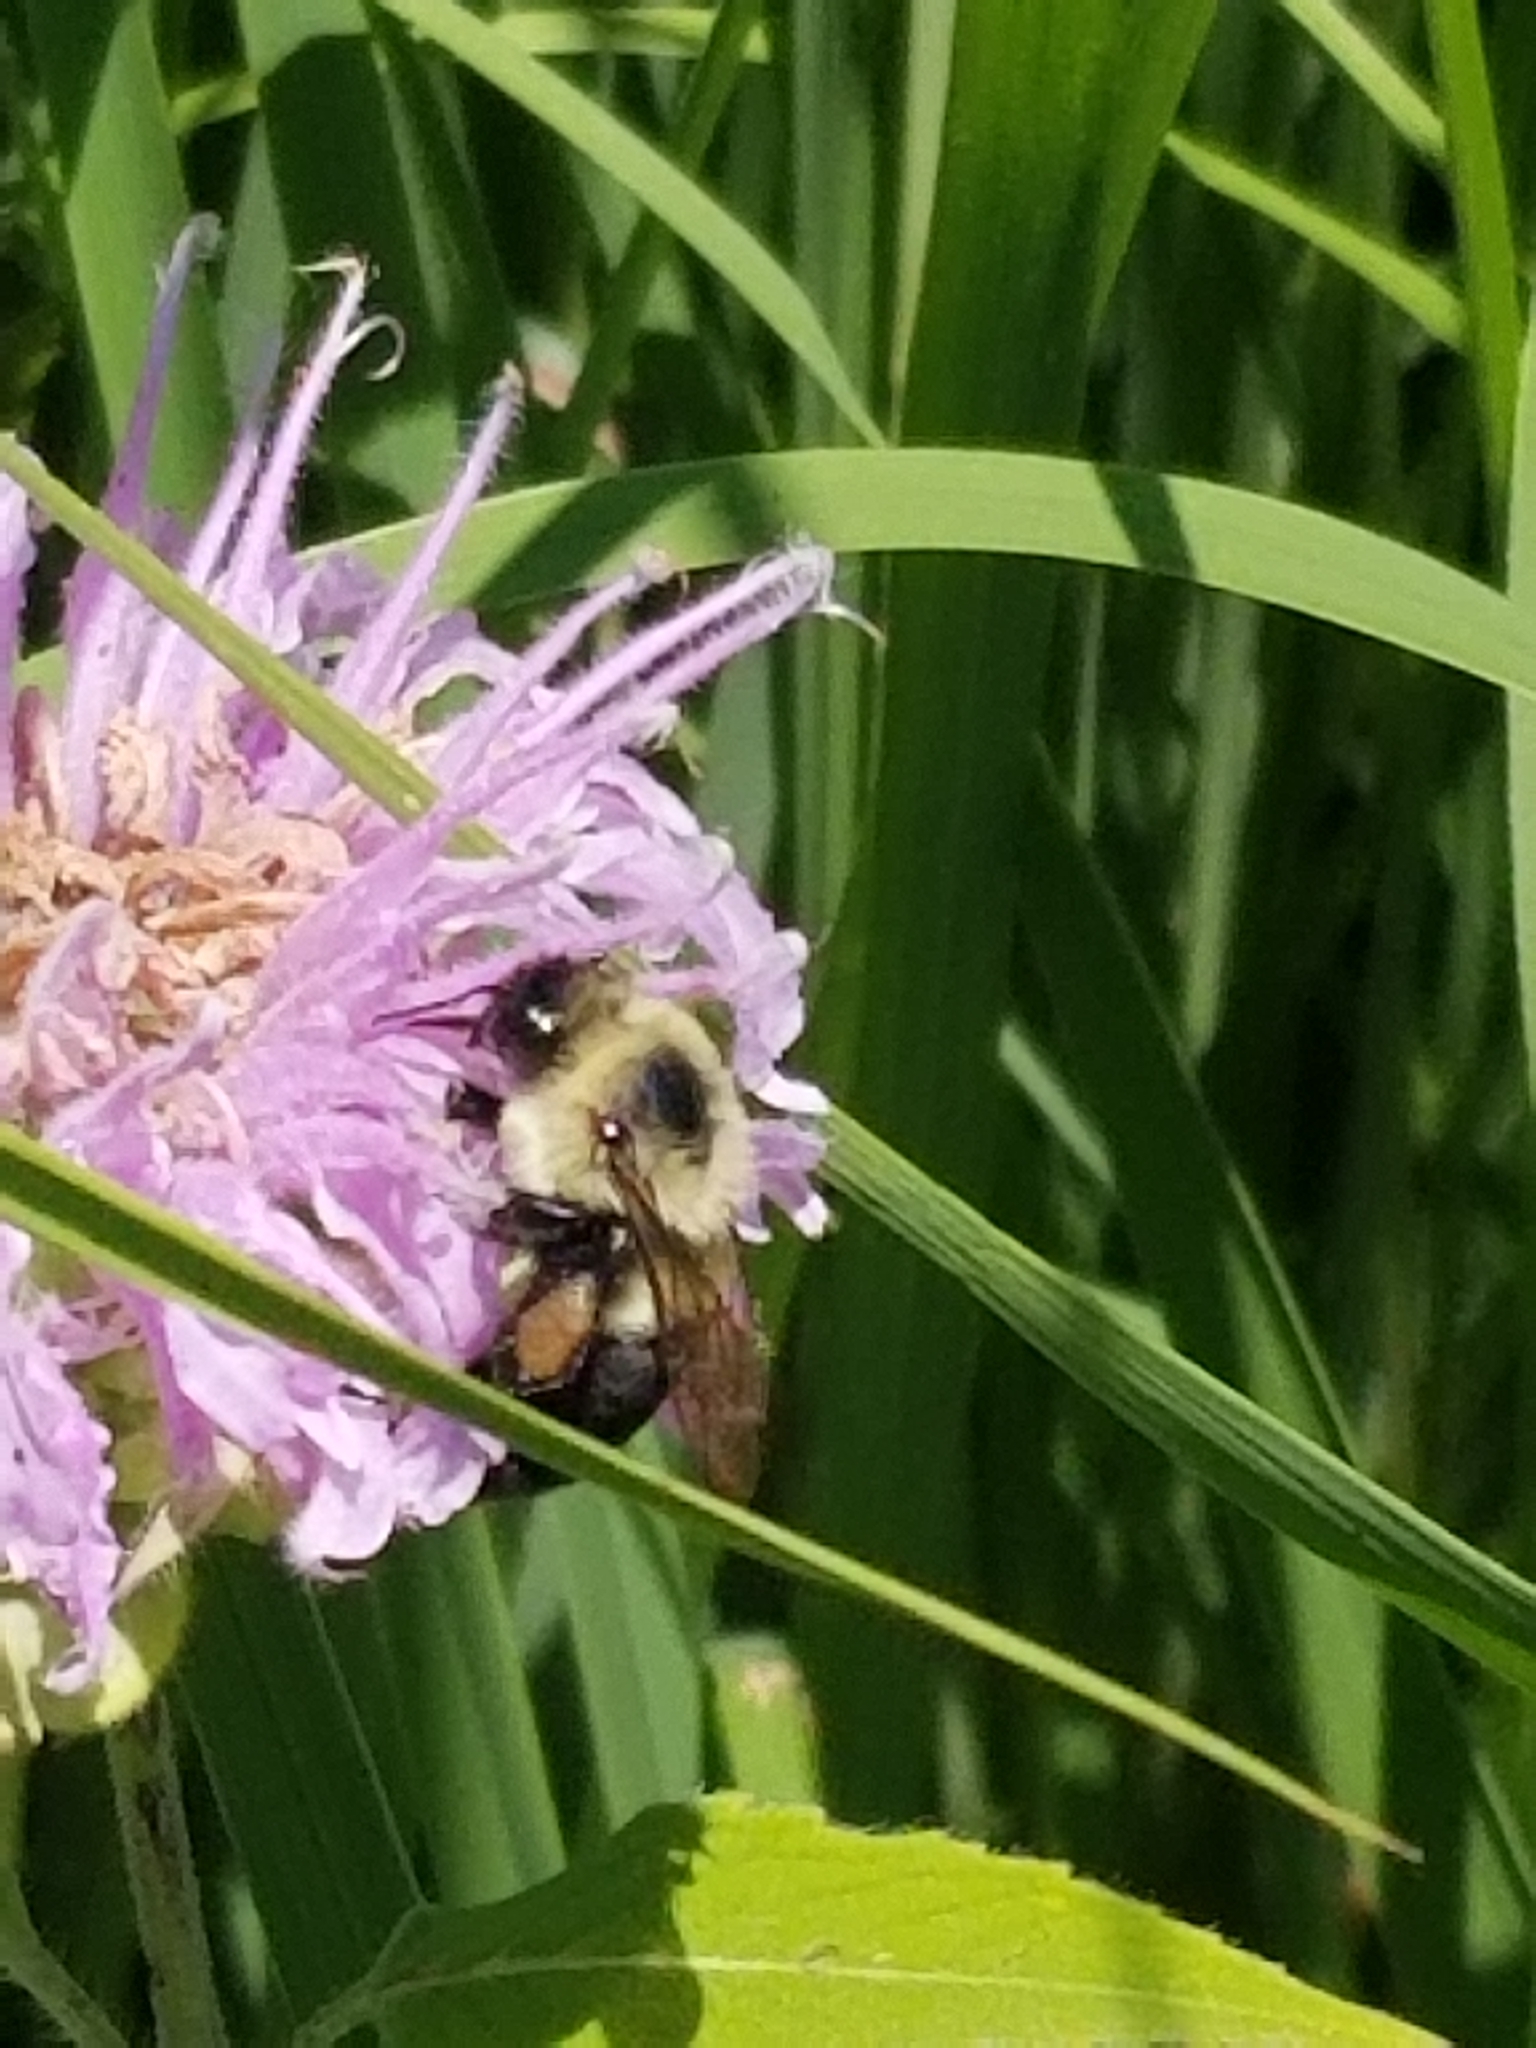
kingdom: Animalia
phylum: Arthropoda
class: Insecta
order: Hymenoptera
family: Apidae
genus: Bombus
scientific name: Bombus impatiens
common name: Common eastern bumble bee
